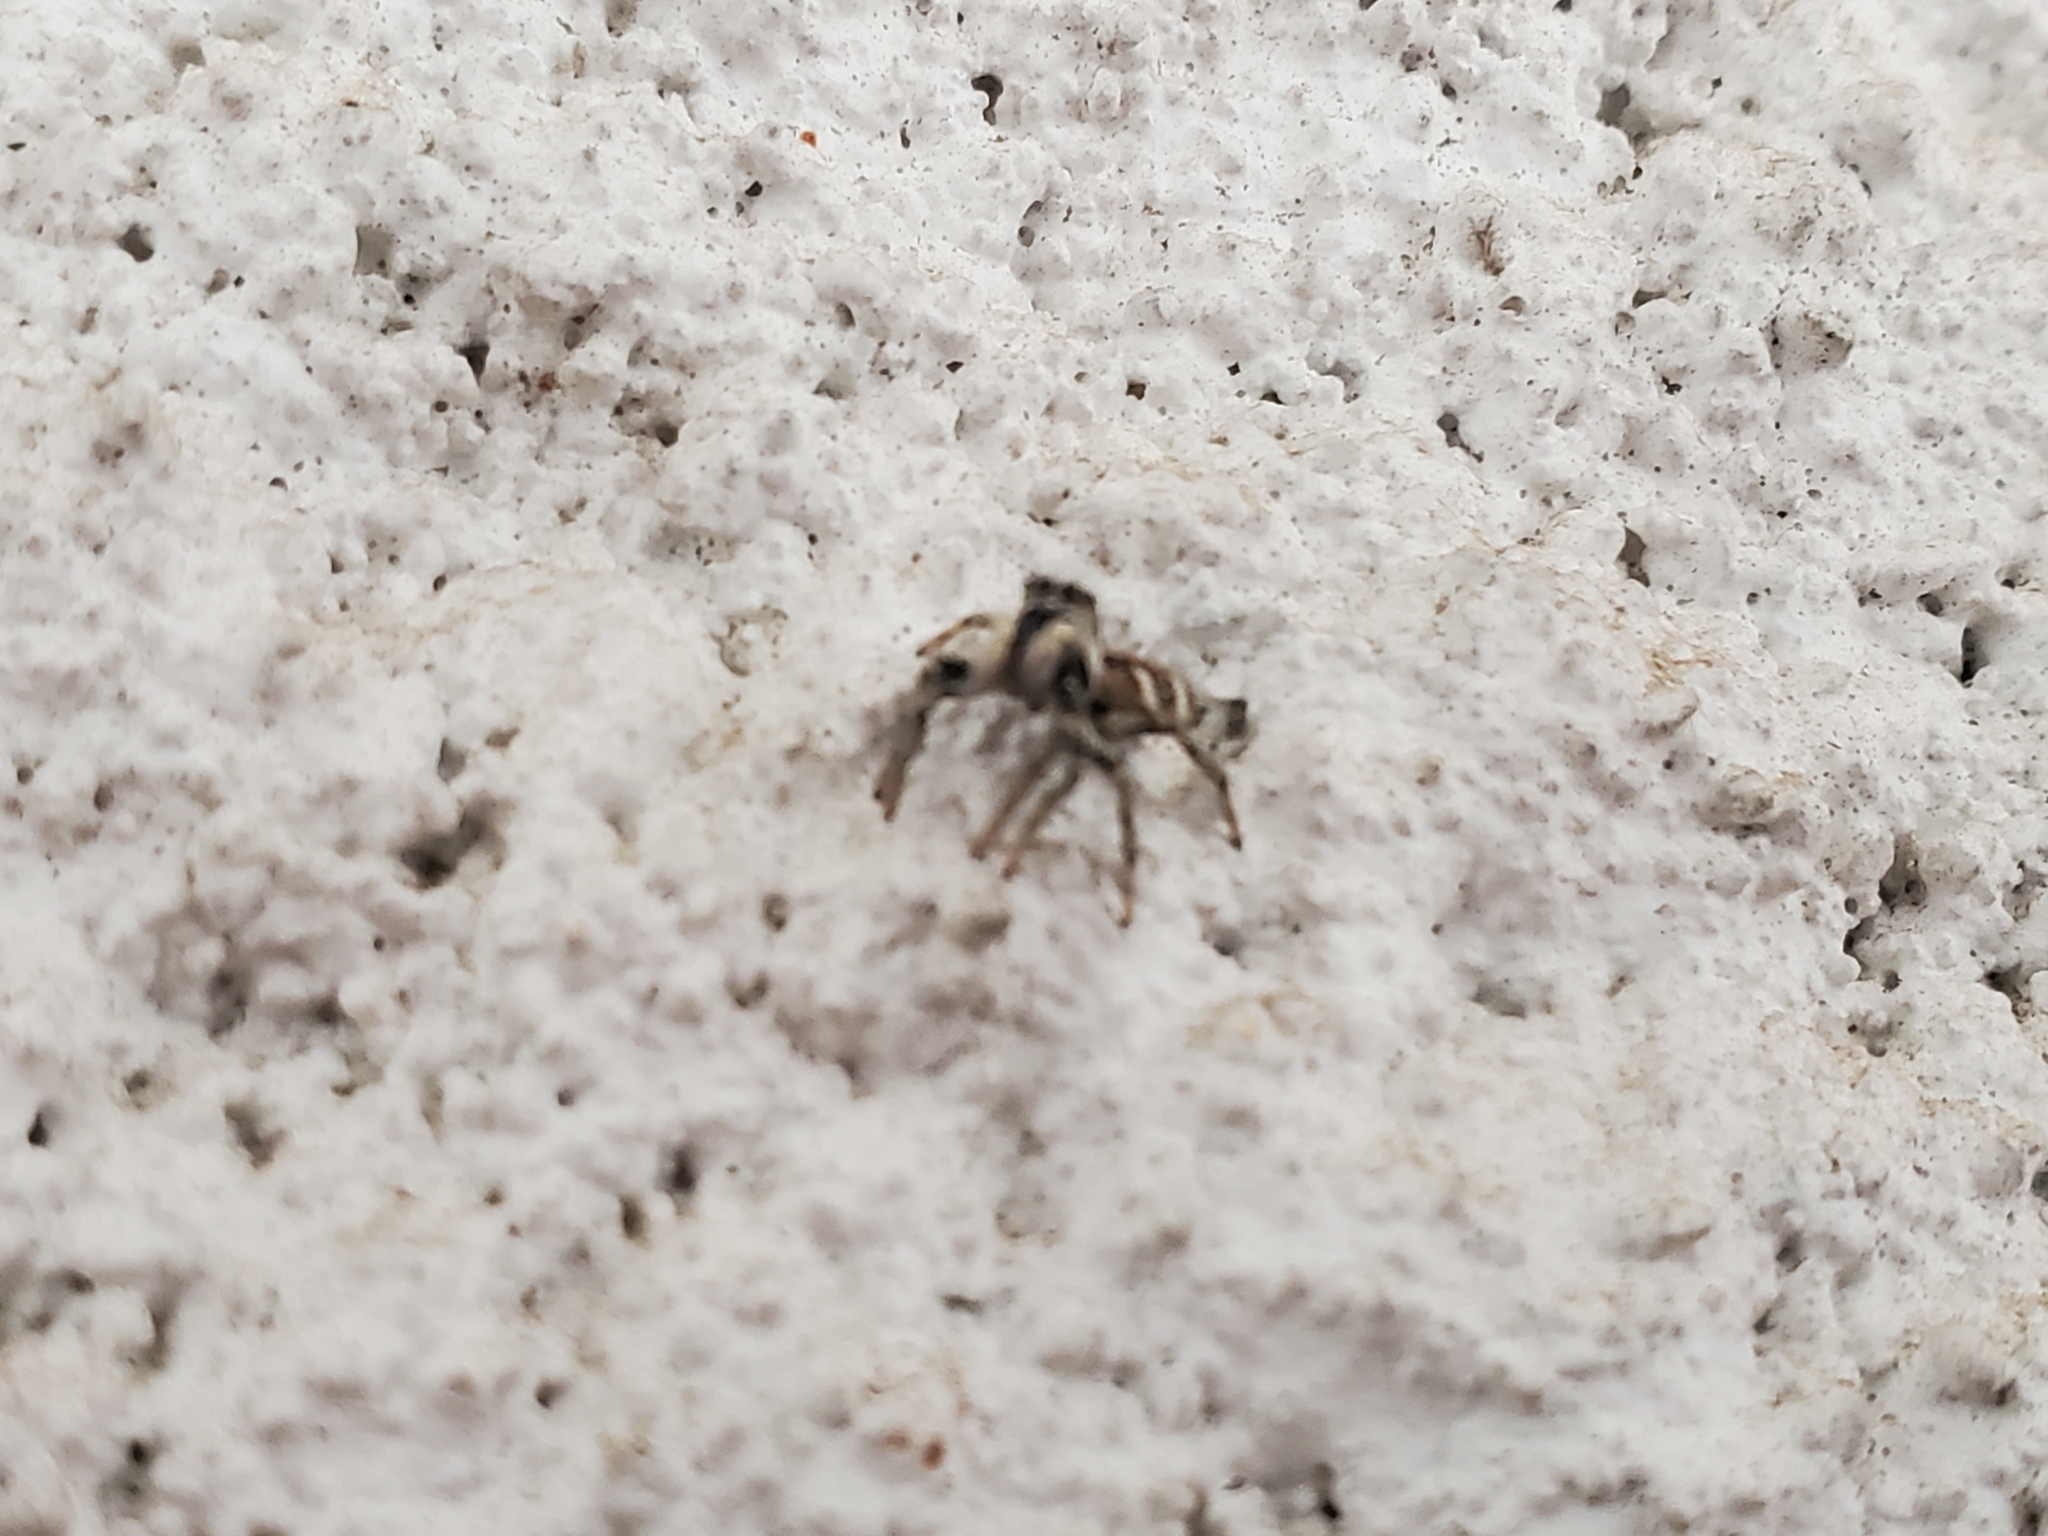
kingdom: Animalia
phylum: Arthropoda
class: Arachnida
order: Araneae
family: Salticidae
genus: Salticus
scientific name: Salticus scenicus
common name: Zebra jumper
